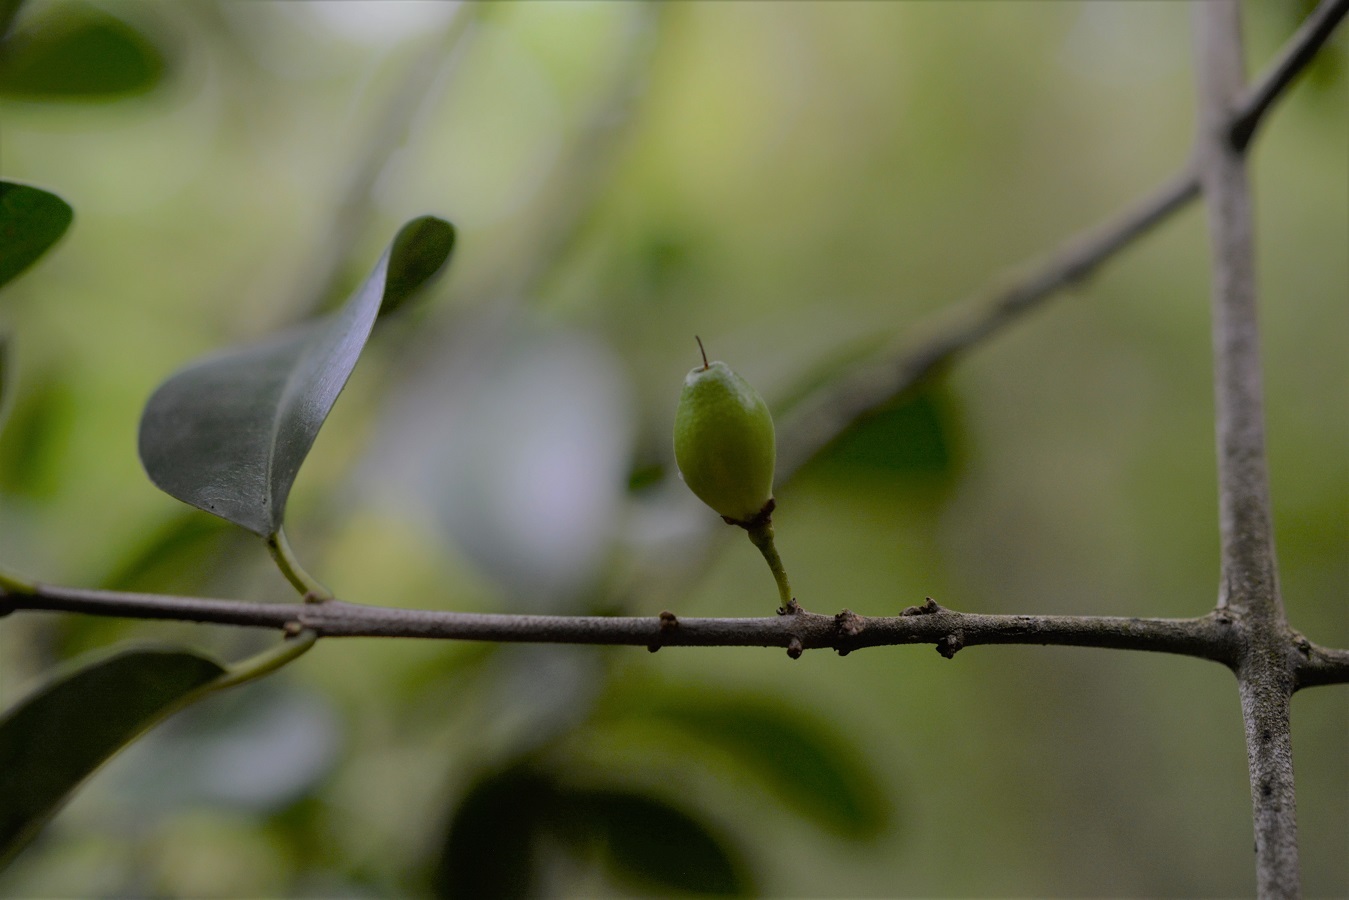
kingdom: Plantae
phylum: Tracheophyta
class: Magnoliopsida
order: Malpighiales
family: Erythroxylaceae
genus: Erythroxylum
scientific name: Erythroxylum guatemalense
